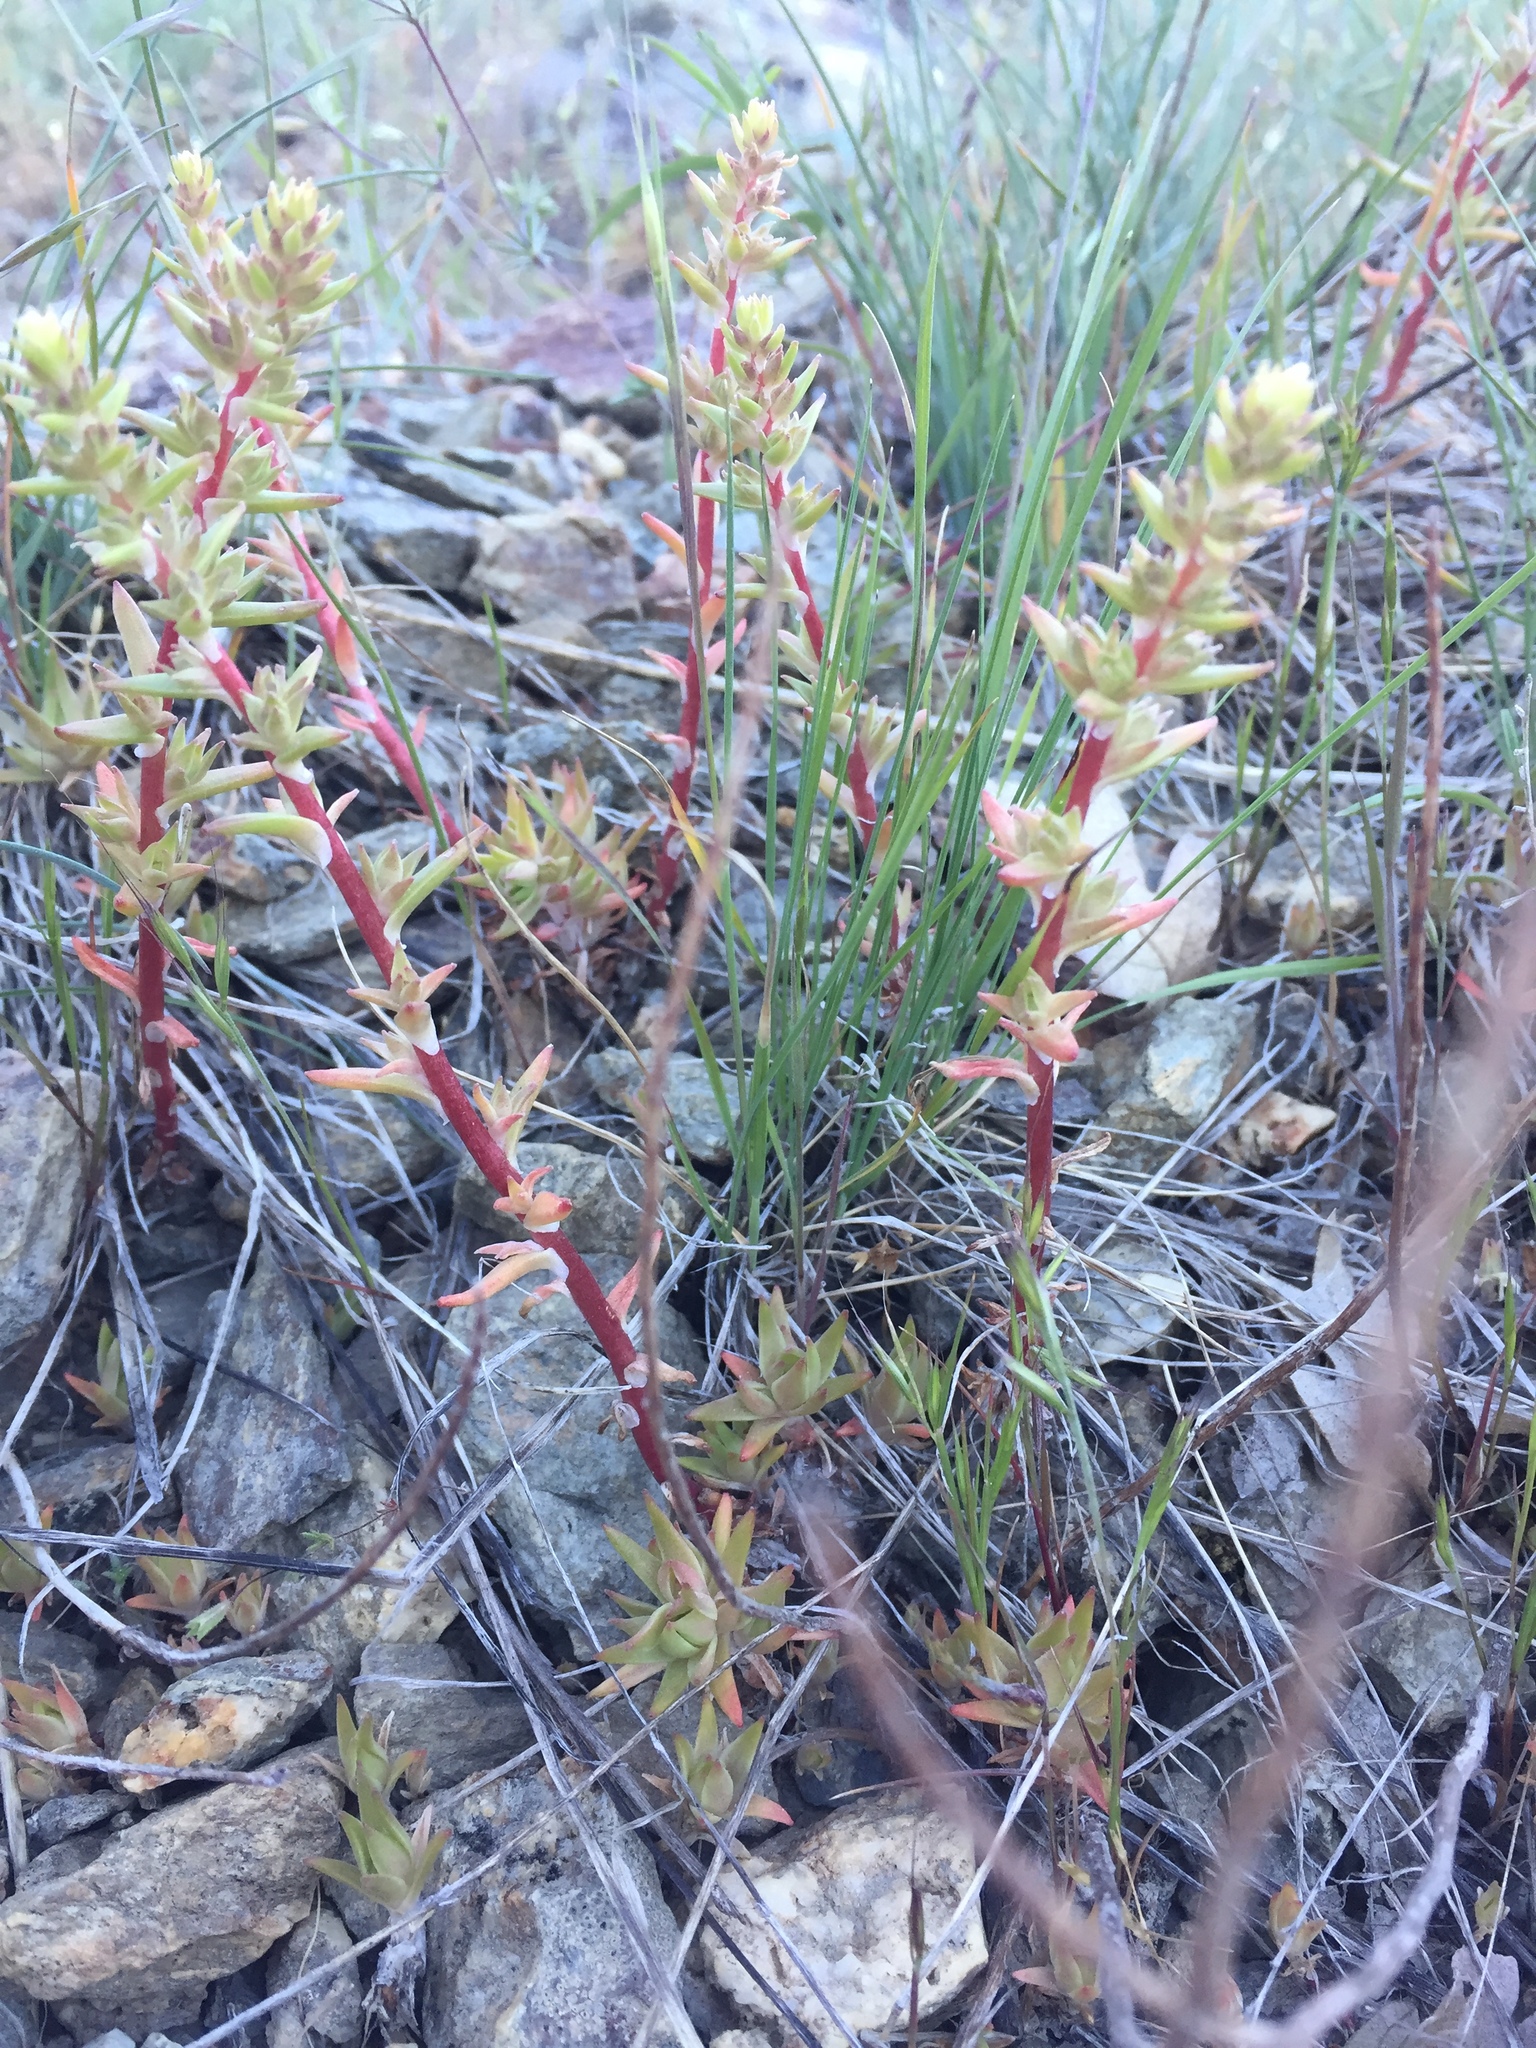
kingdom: Plantae
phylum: Tracheophyta
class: Magnoliopsida
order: Saxifragales
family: Crassulaceae
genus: Sedum
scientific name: Sedum stenopetalum
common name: Narrow-petaled stonecrop
